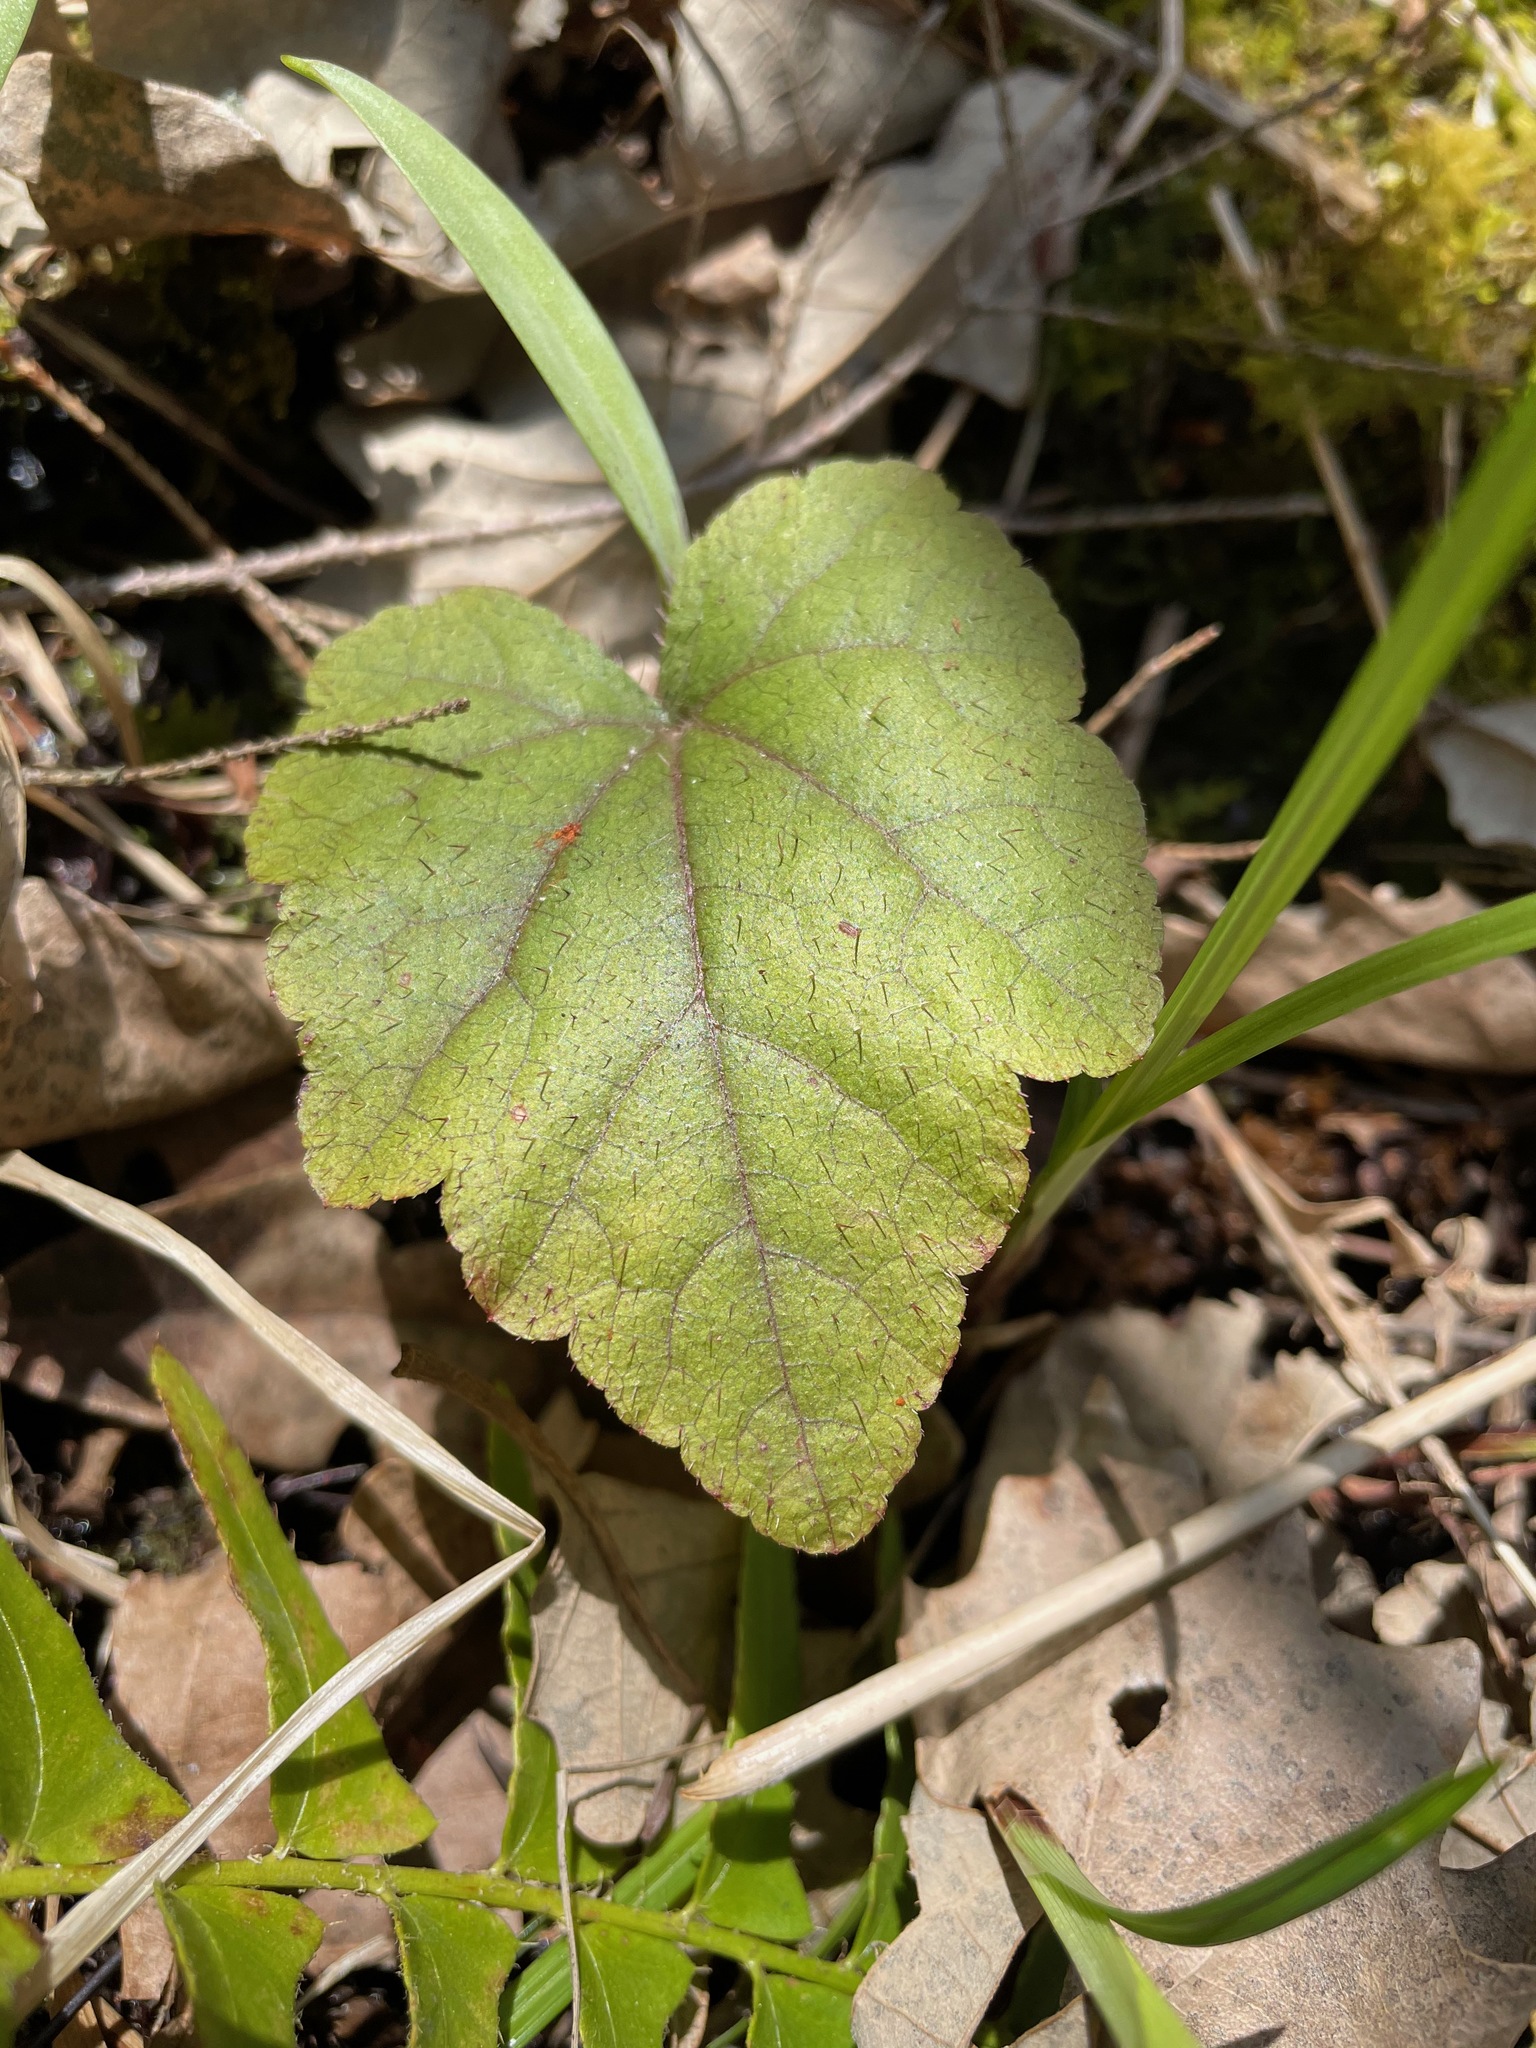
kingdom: Plantae
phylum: Tracheophyta
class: Magnoliopsida
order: Saxifragales
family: Saxifragaceae
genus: Tiarella
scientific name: Tiarella stolonifera
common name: Stoloniferous foamflower
